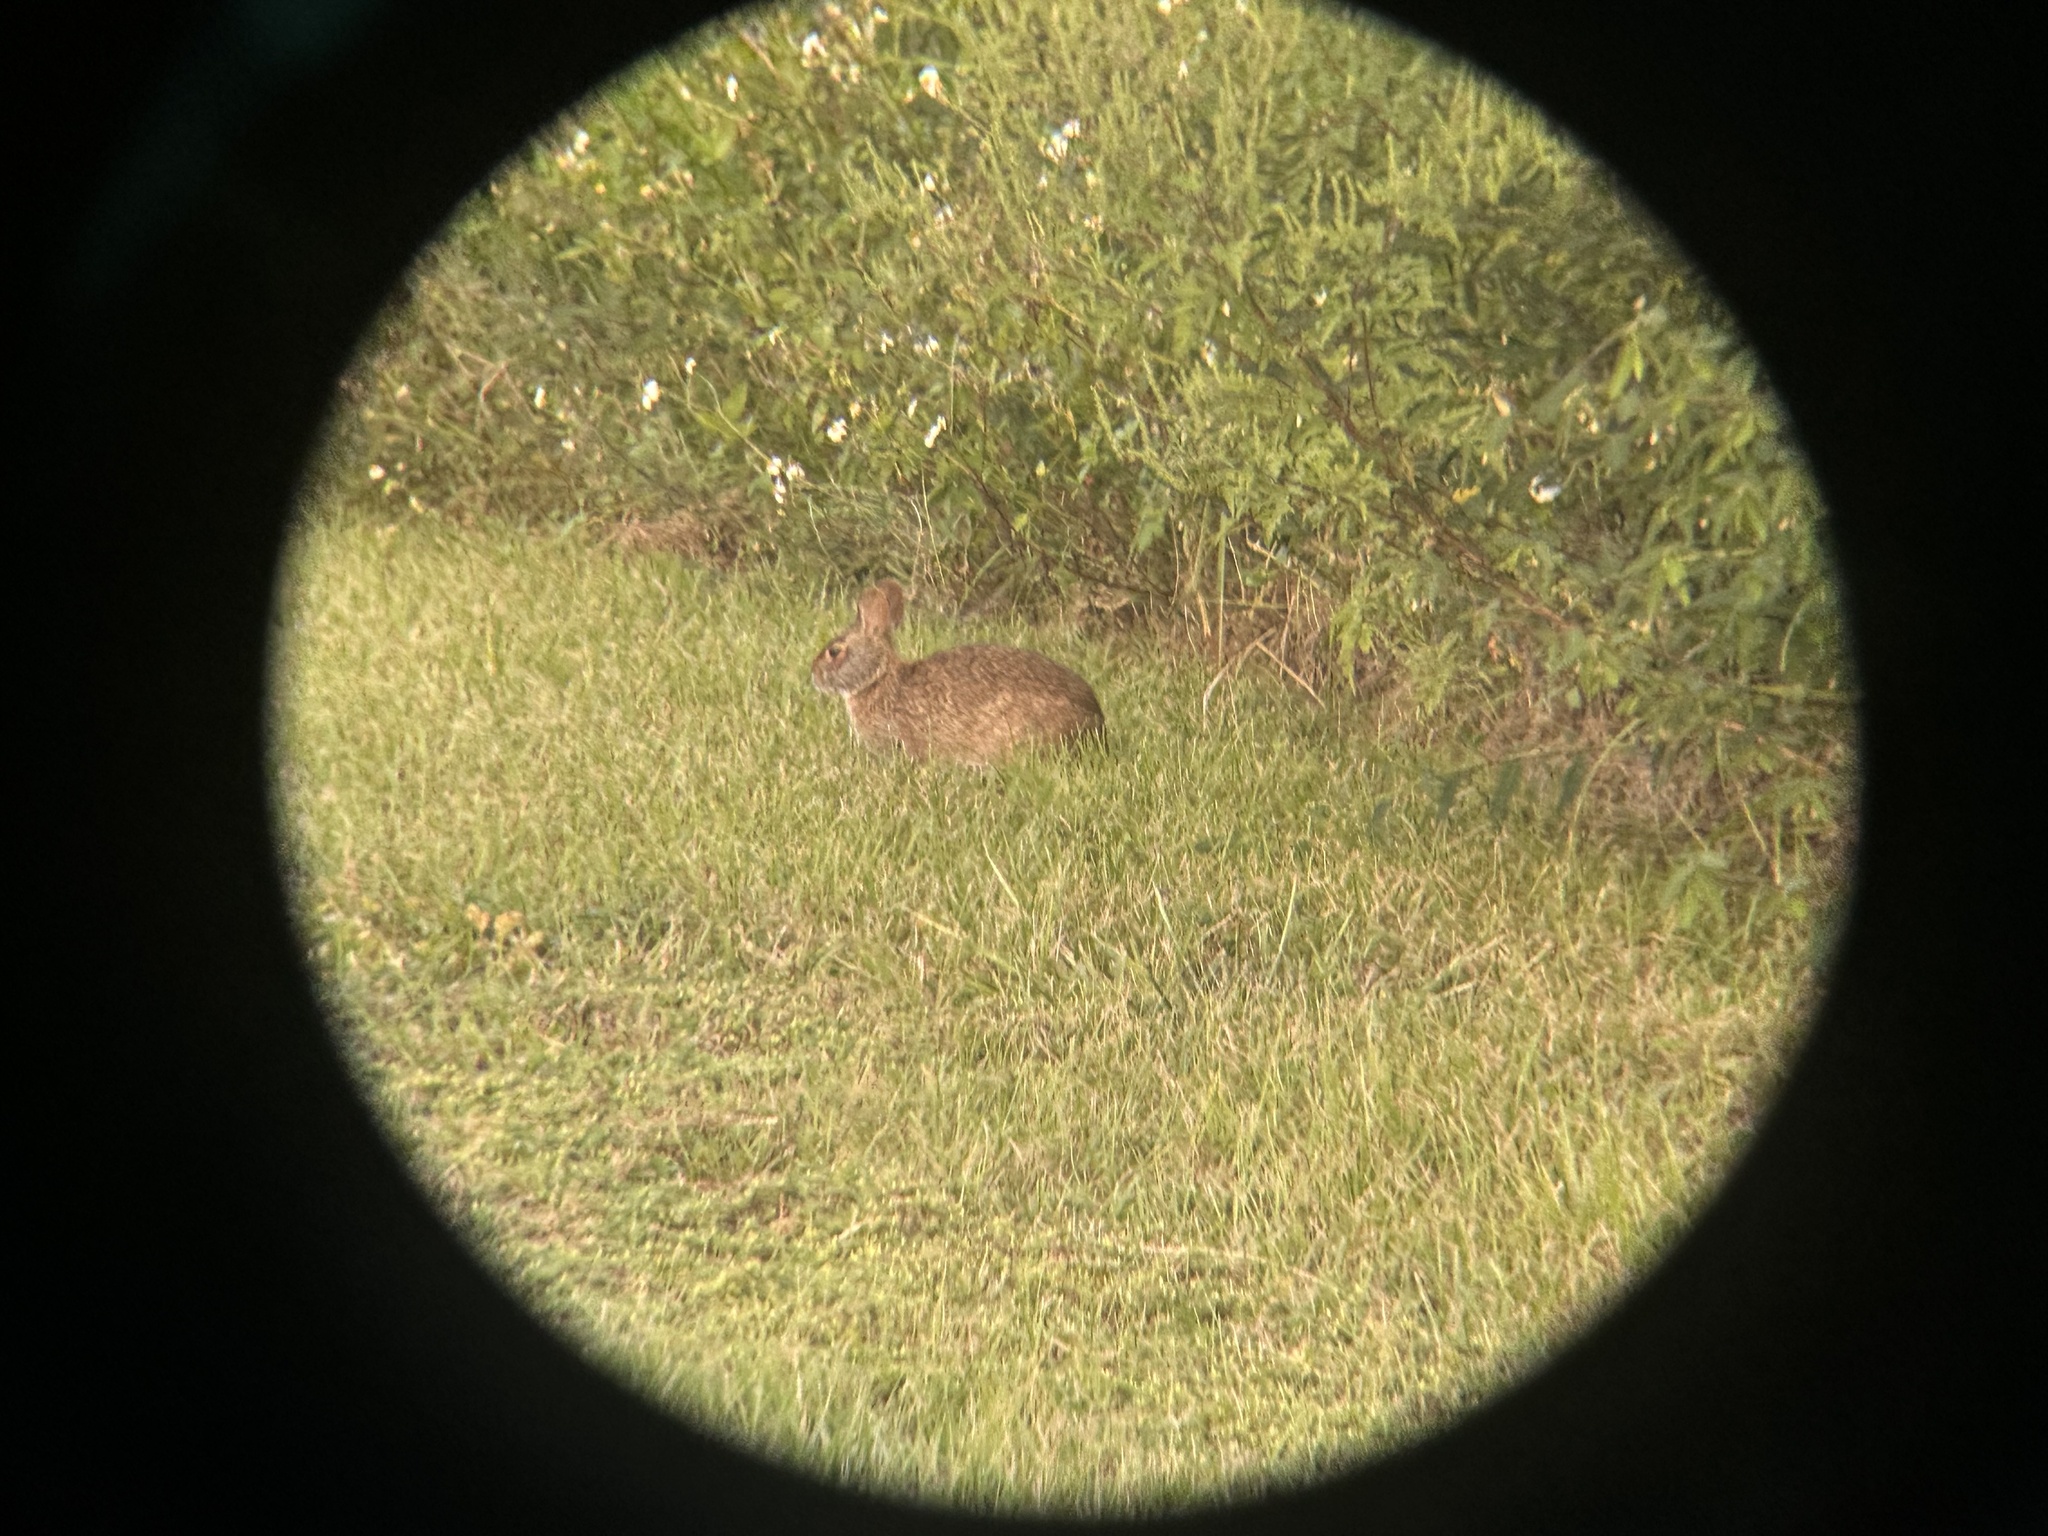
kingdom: Animalia
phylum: Chordata
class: Mammalia
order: Lagomorpha
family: Leporidae
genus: Sylvilagus
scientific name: Sylvilagus palustris
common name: Marsh rabbit
